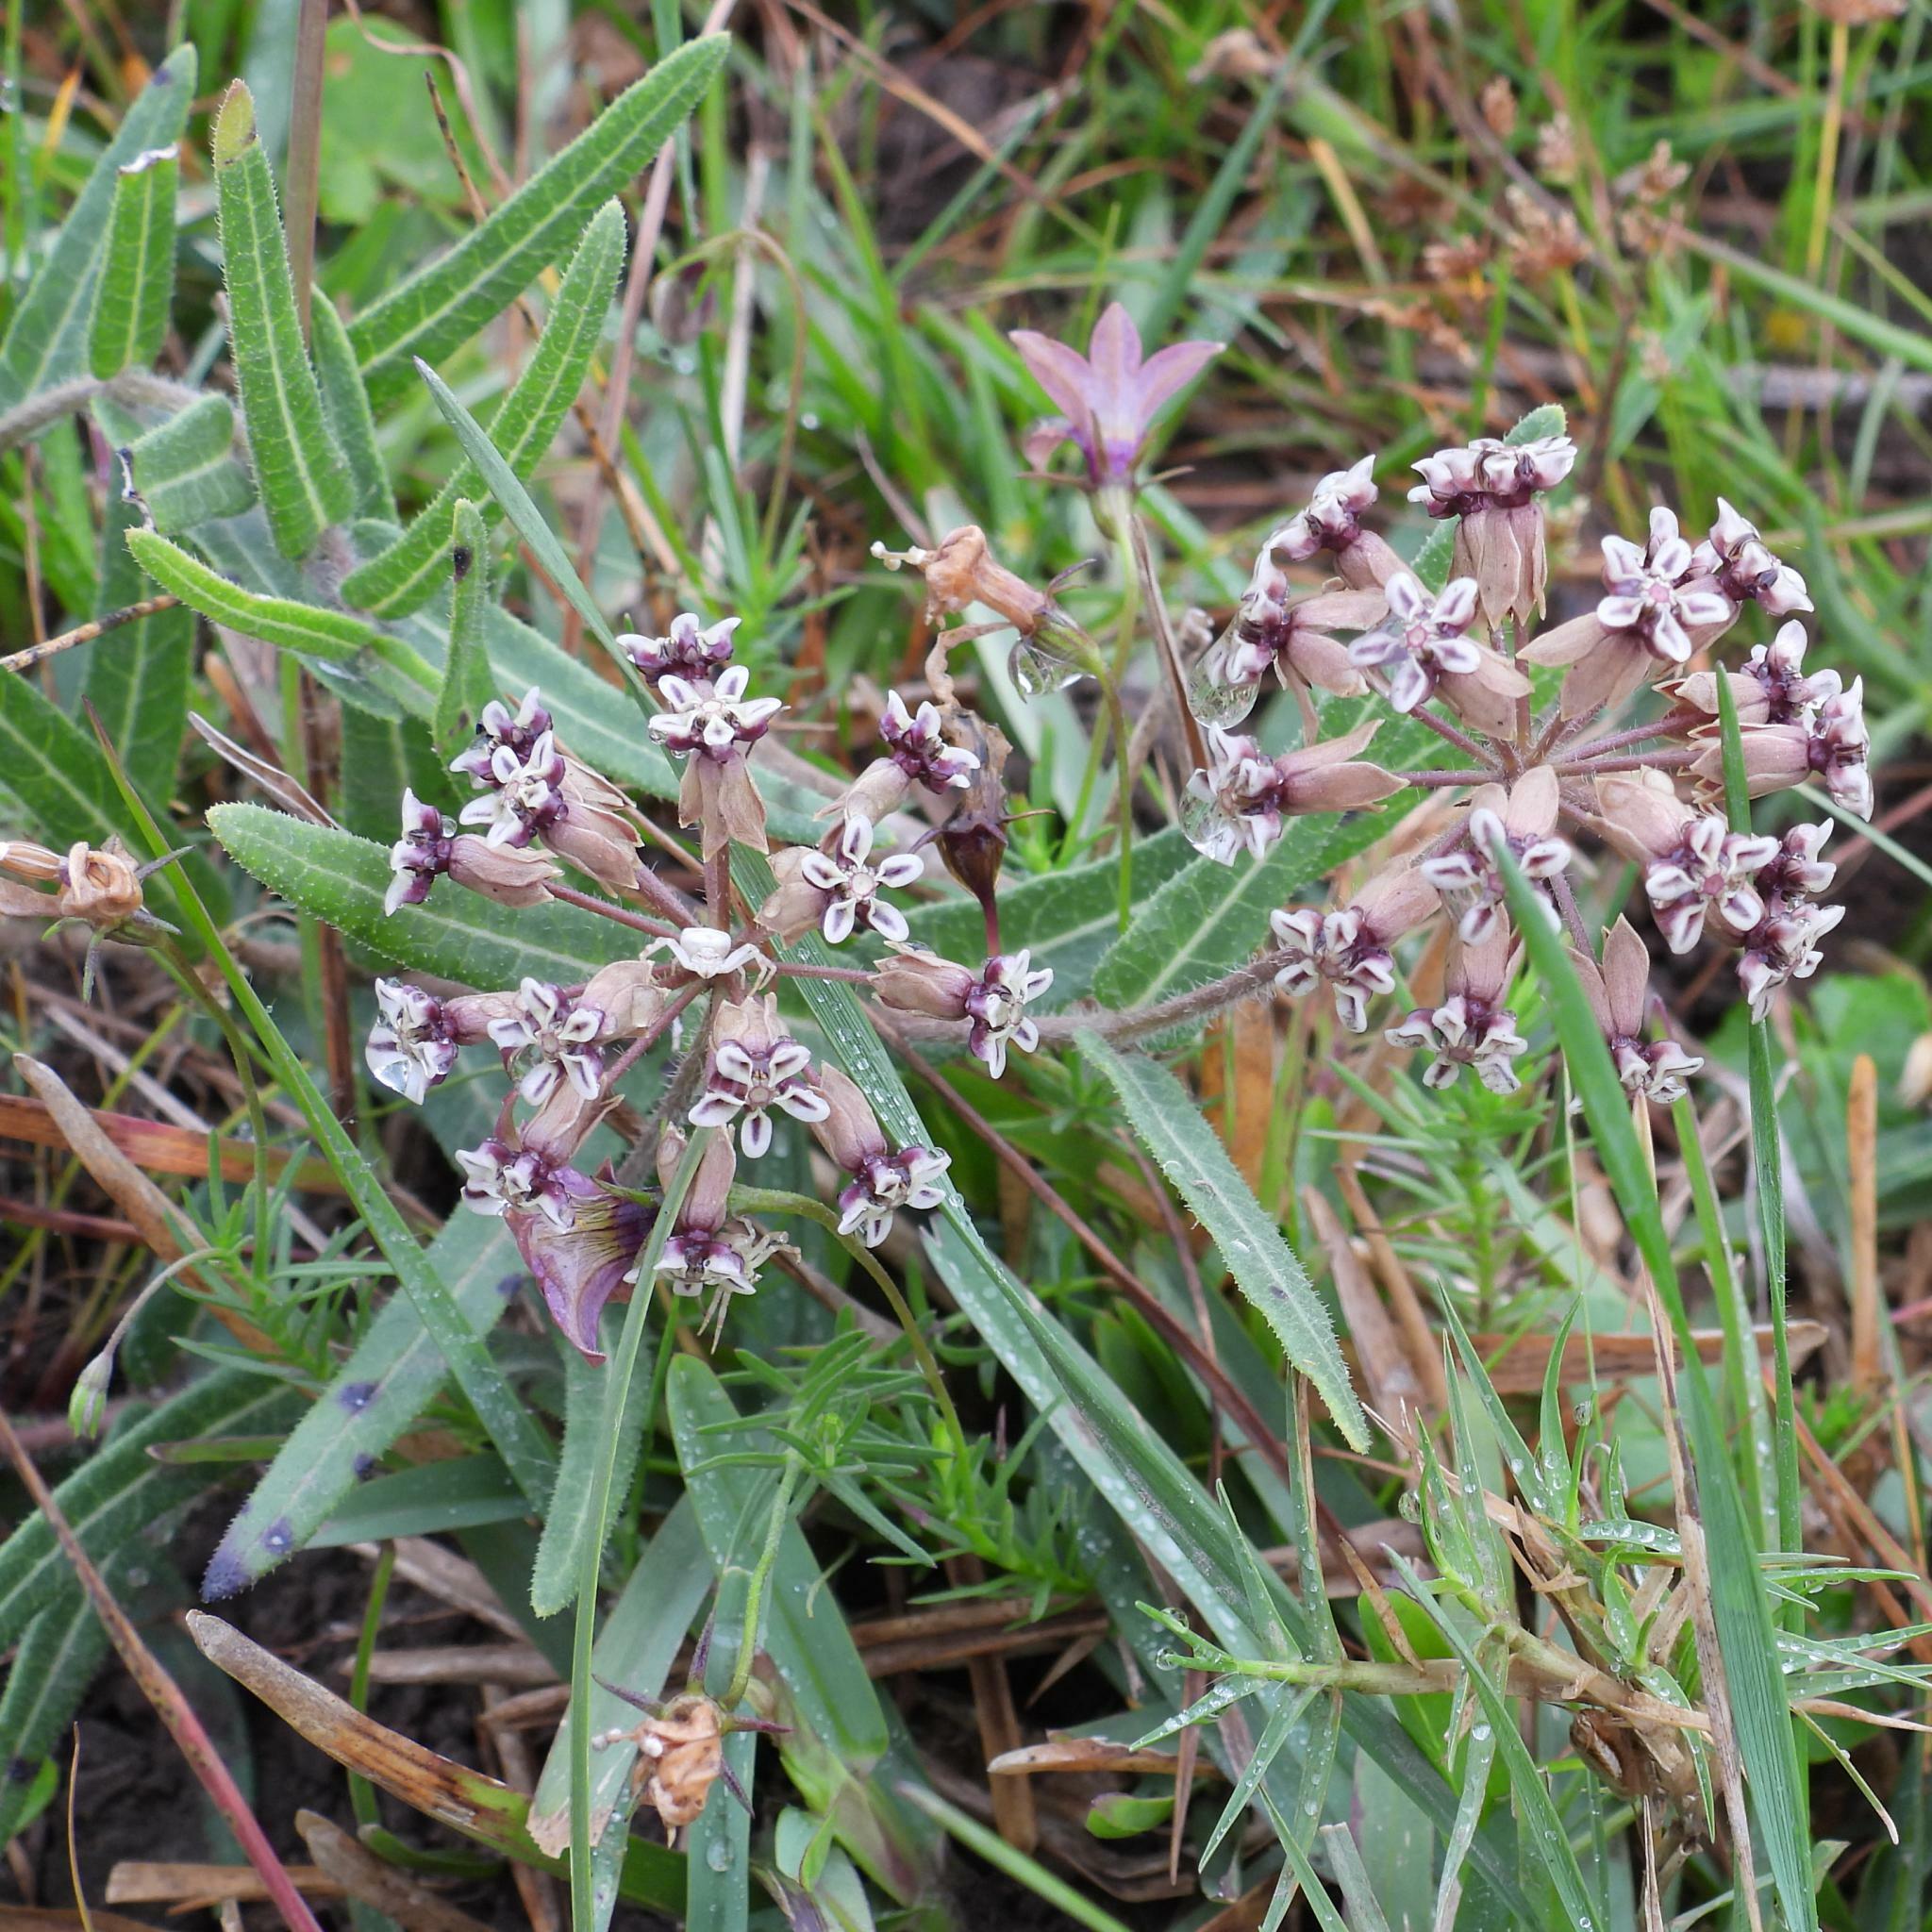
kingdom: Plantae
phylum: Tracheophyta
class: Magnoliopsida
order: Gentianales
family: Apocynaceae
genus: Asclepias
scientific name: Asclepias crispa
